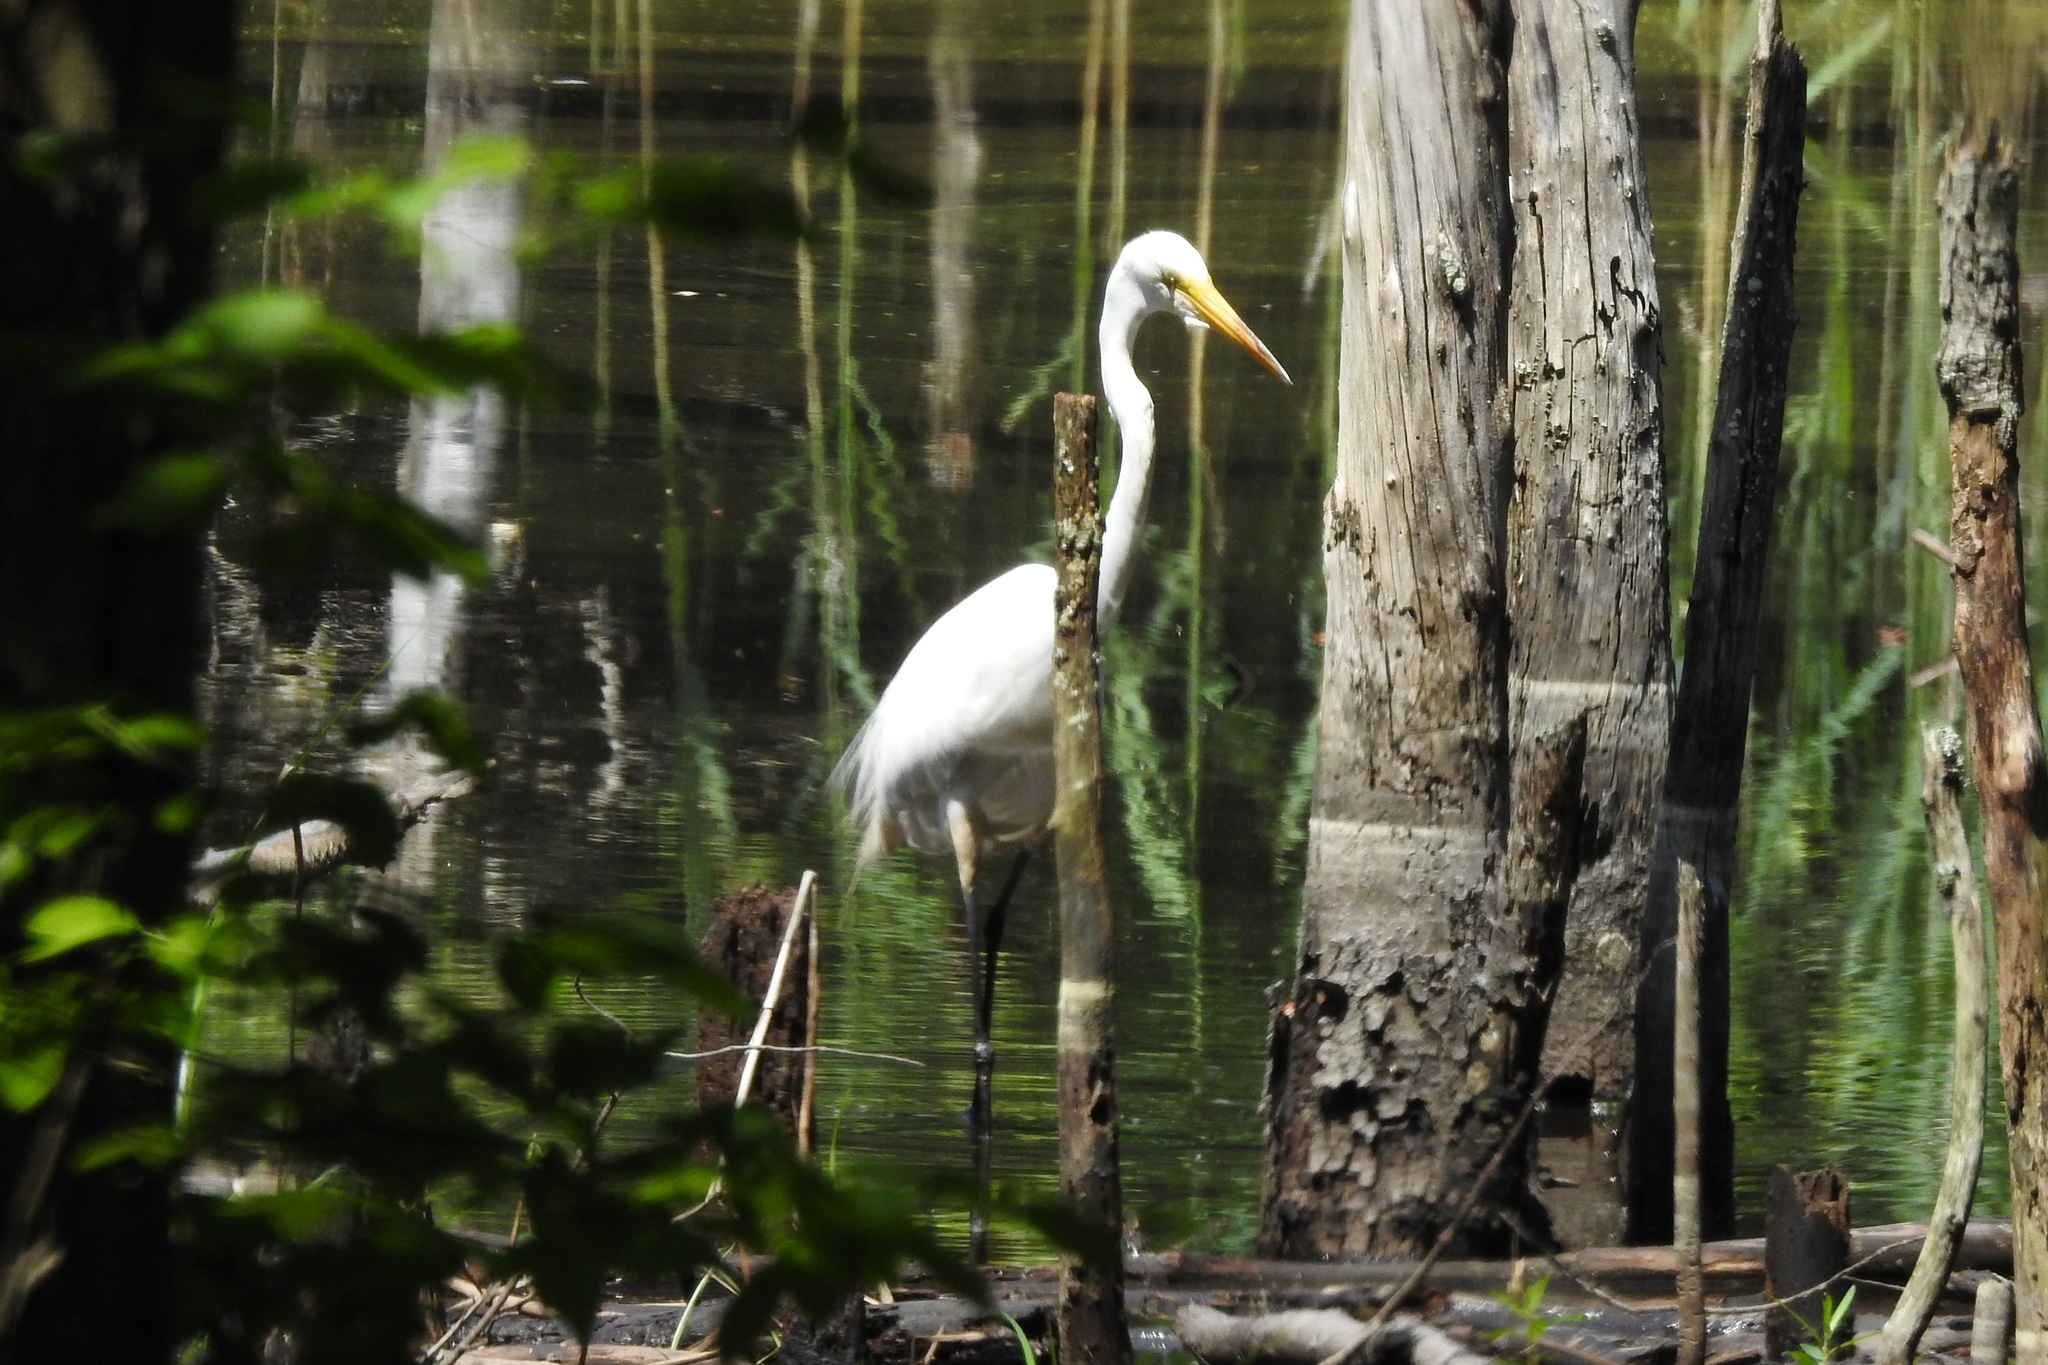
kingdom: Animalia
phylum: Chordata
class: Aves
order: Pelecaniformes
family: Ardeidae
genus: Ardea
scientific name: Ardea alba
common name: Great egret
